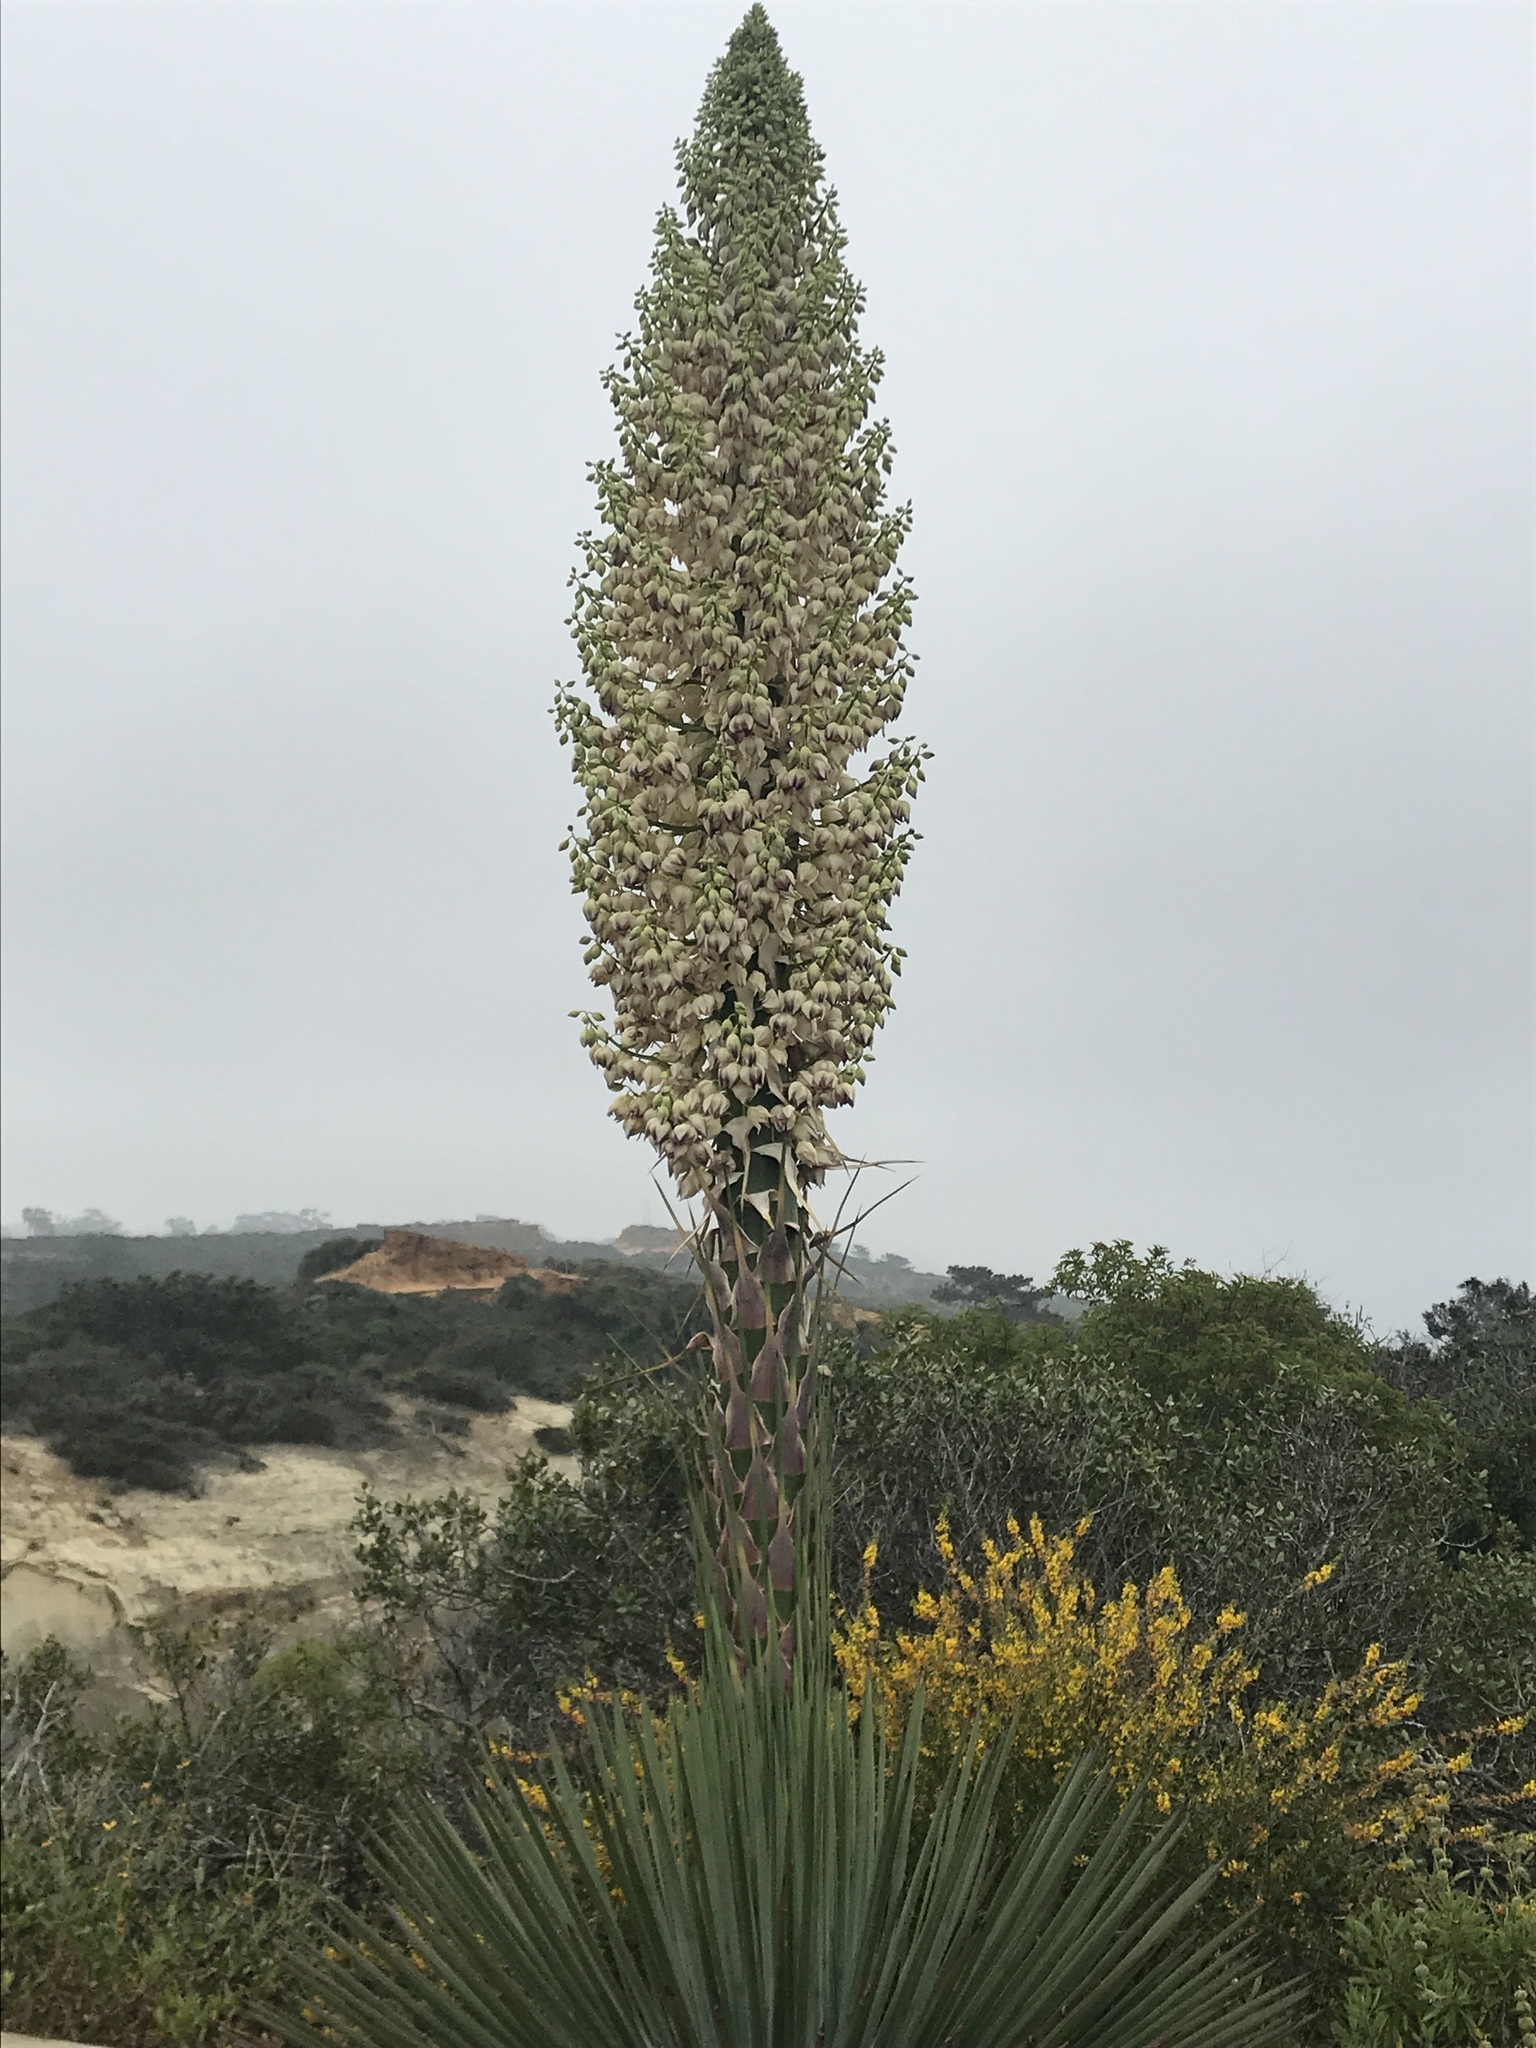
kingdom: Plantae
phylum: Tracheophyta
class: Liliopsida
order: Asparagales
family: Asparagaceae
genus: Hesperoyucca
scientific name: Hesperoyucca whipplei
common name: Our lord's-candle
